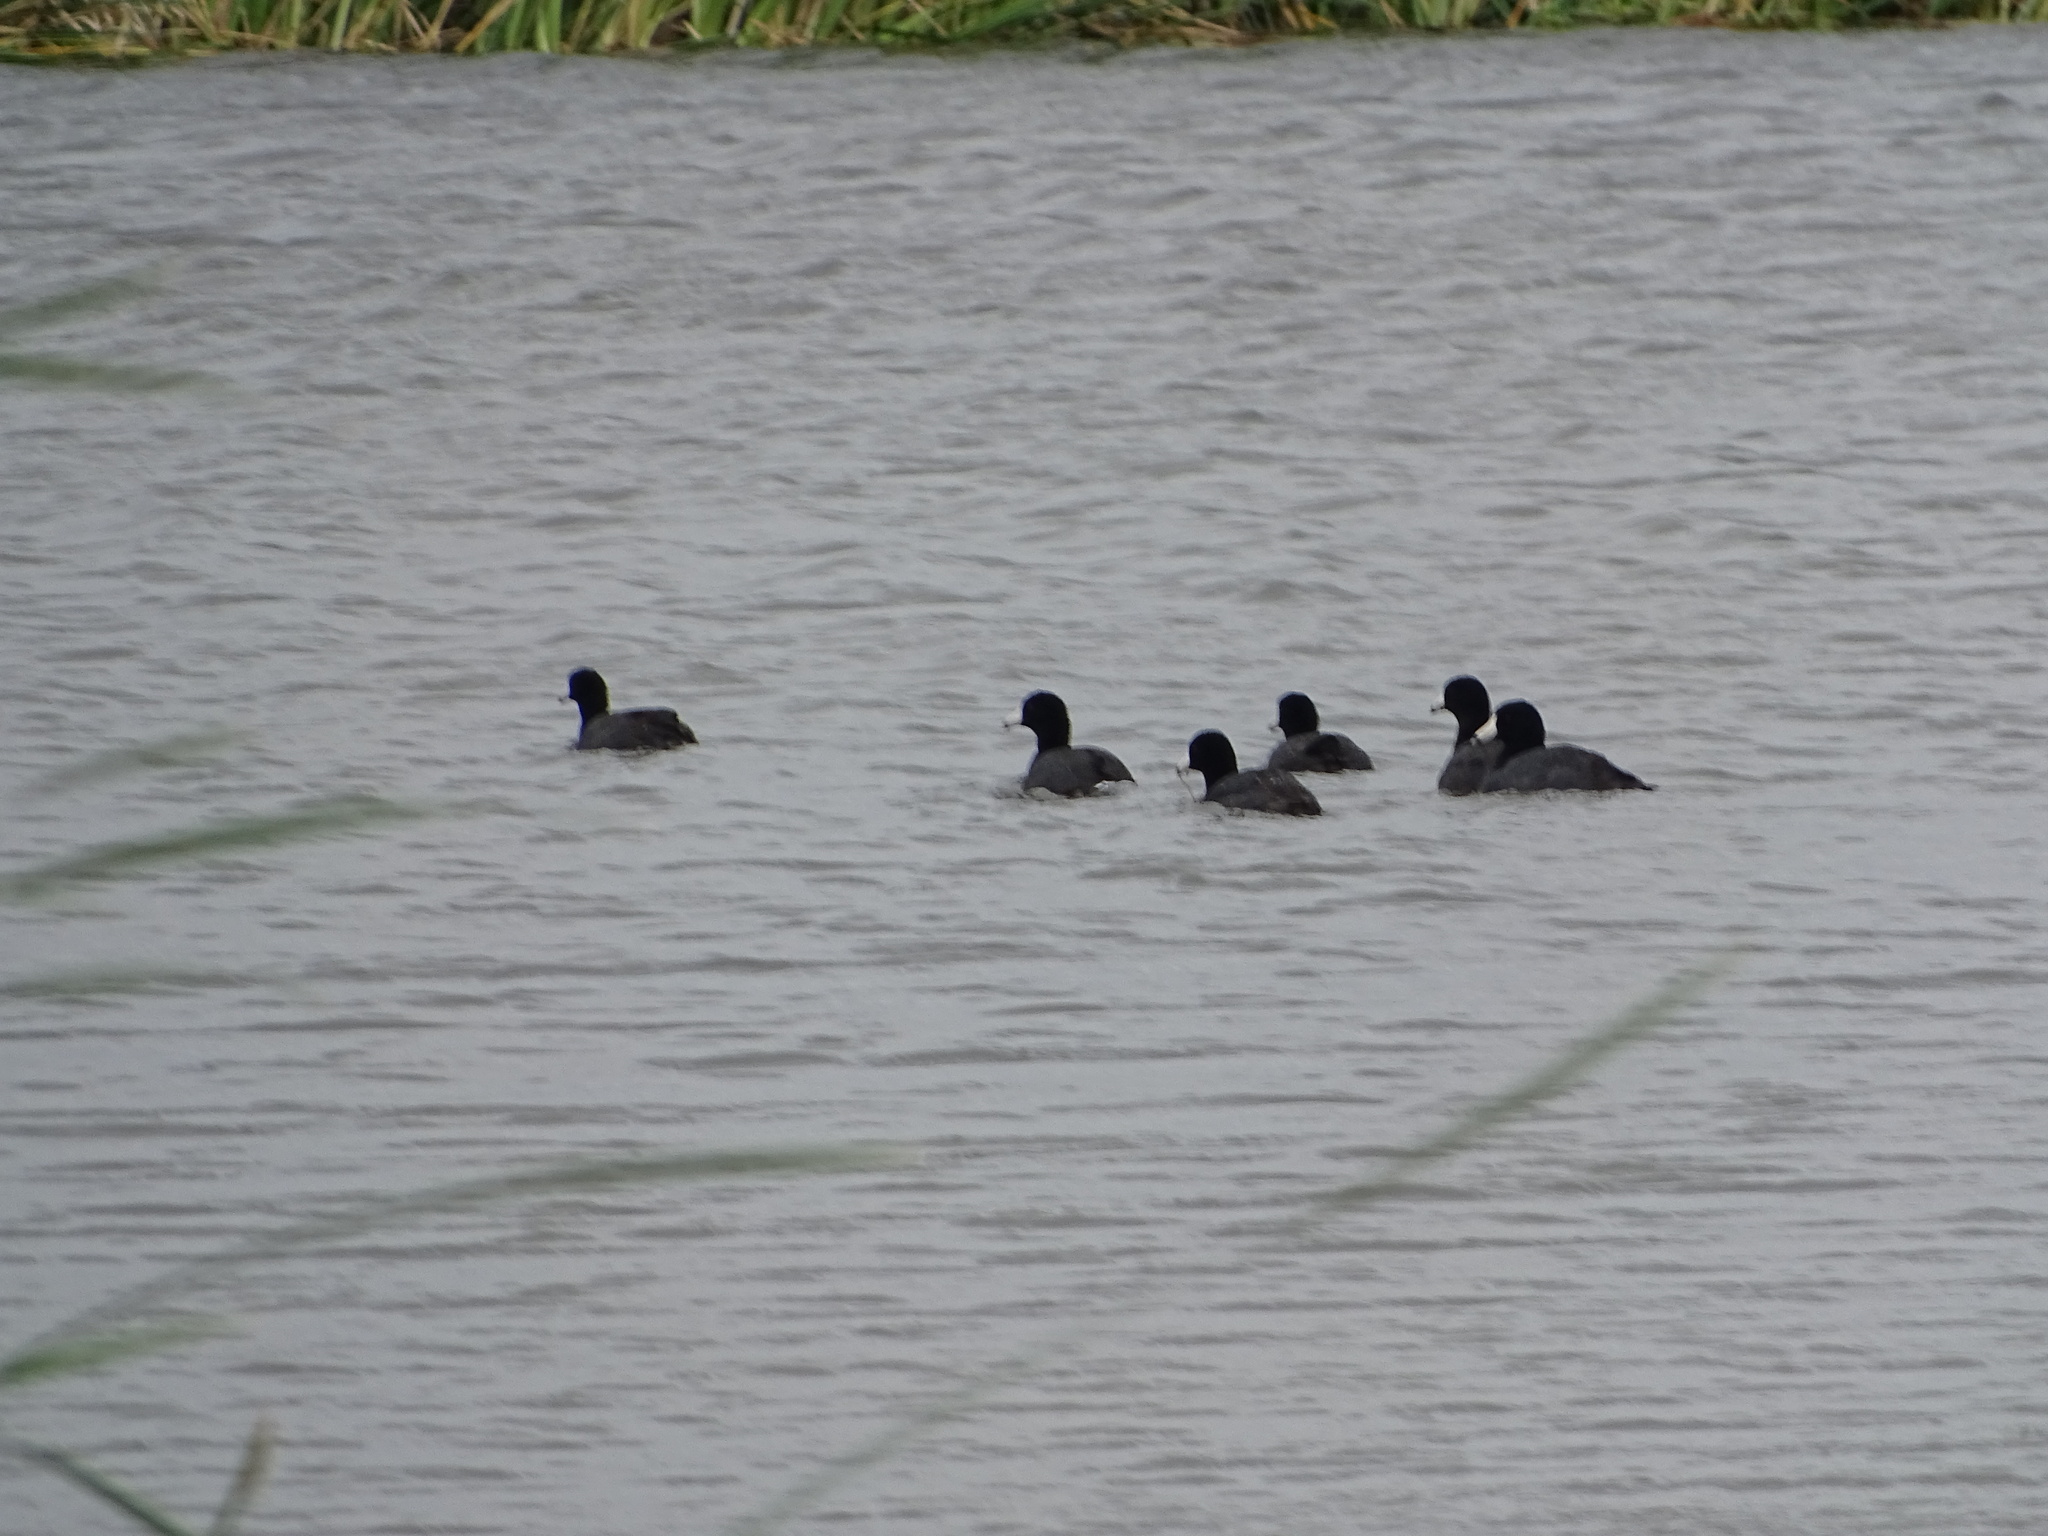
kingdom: Animalia
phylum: Chordata
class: Aves
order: Gruiformes
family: Rallidae
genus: Fulica
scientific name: Fulica americana
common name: American coot
